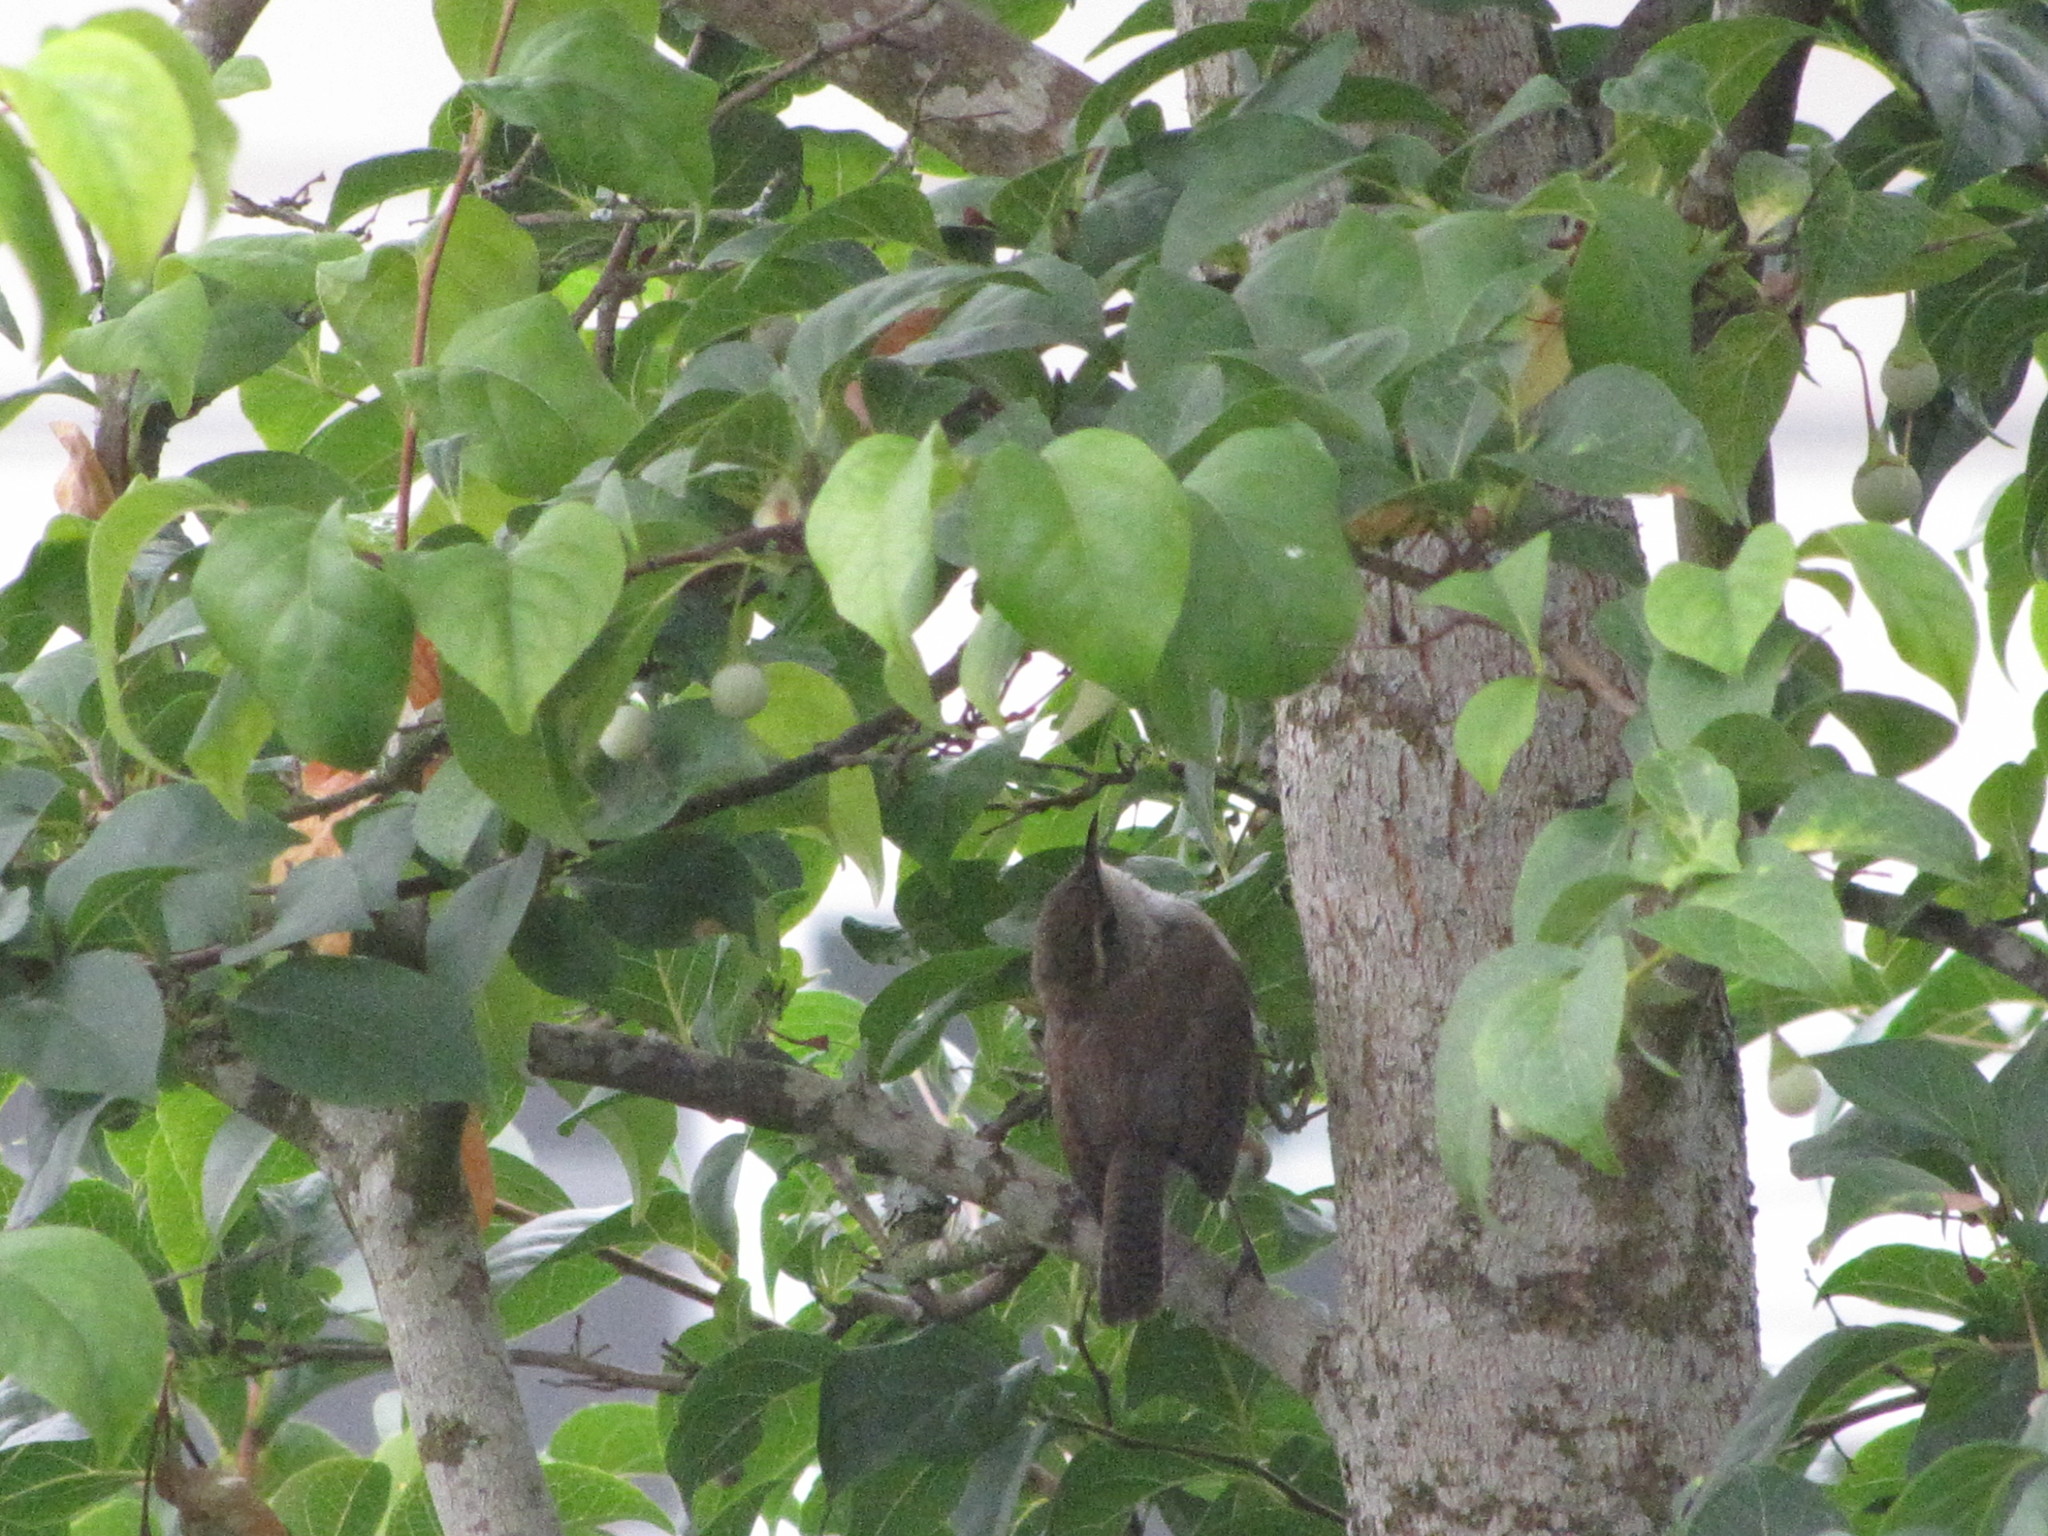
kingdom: Animalia
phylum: Chordata
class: Aves
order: Passeriformes
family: Troglodytidae
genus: Thryomanes
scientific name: Thryomanes bewickii
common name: Bewick's wren
